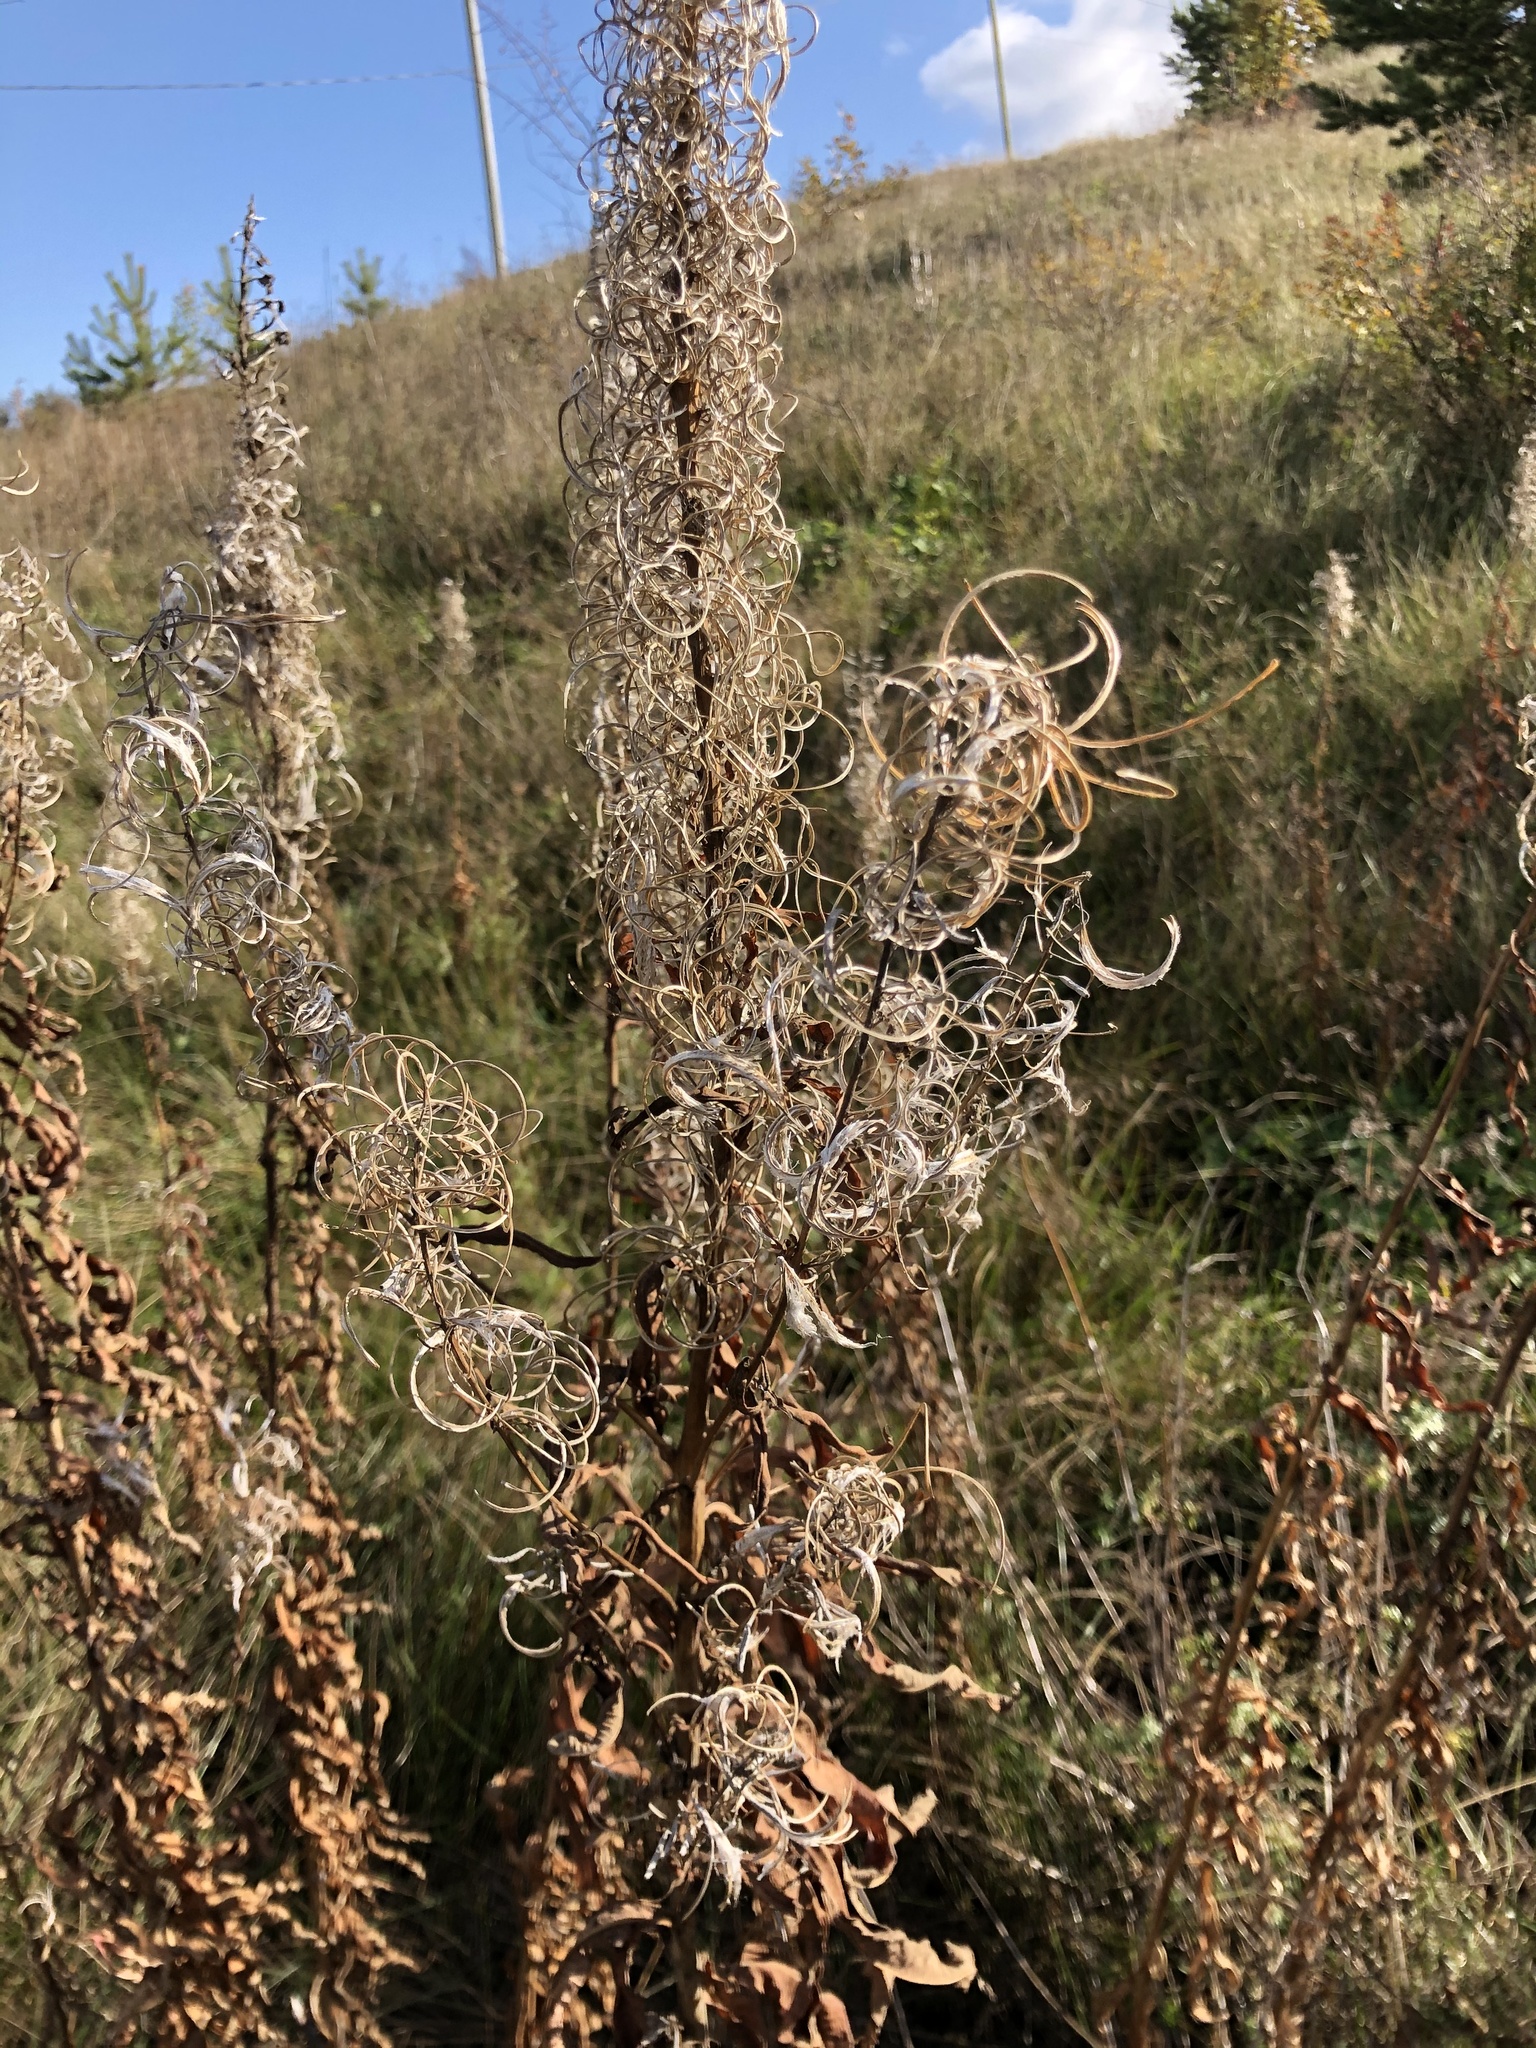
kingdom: Plantae
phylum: Tracheophyta
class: Magnoliopsida
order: Myrtales
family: Onagraceae
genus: Chamaenerion
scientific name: Chamaenerion angustifolium
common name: Fireweed
